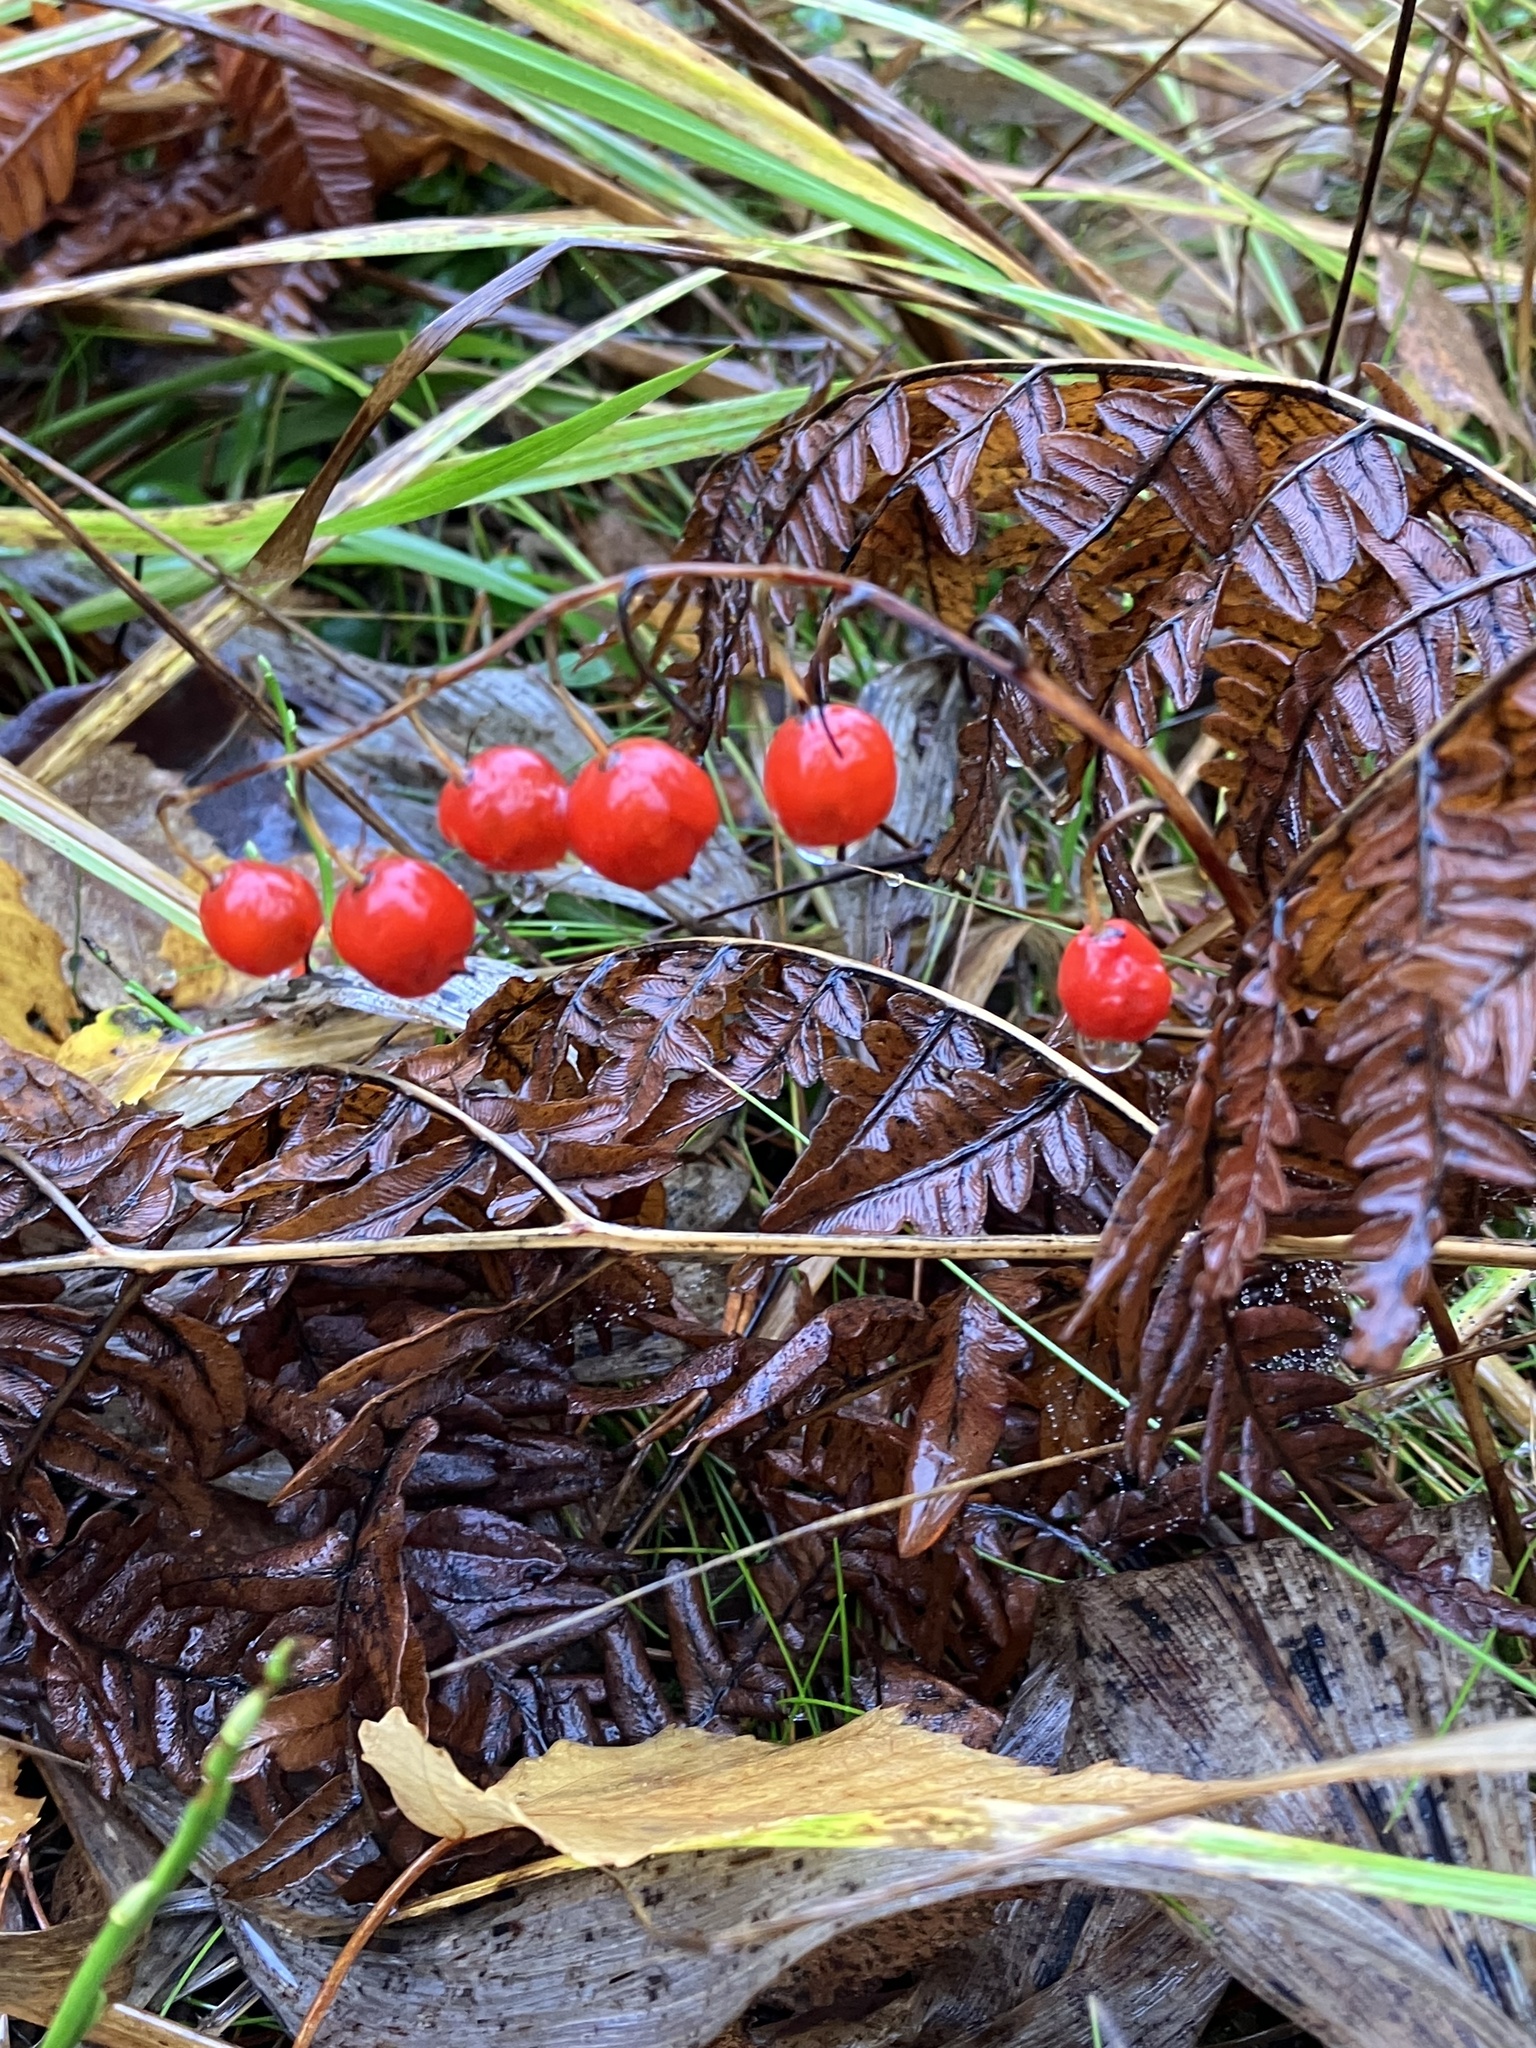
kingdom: Plantae
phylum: Tracheophyta
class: Liliopsida
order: Asparagales
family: Asparagaceae
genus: Convallaria
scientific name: Convallaria majalis
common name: Lily-of-the-valley
